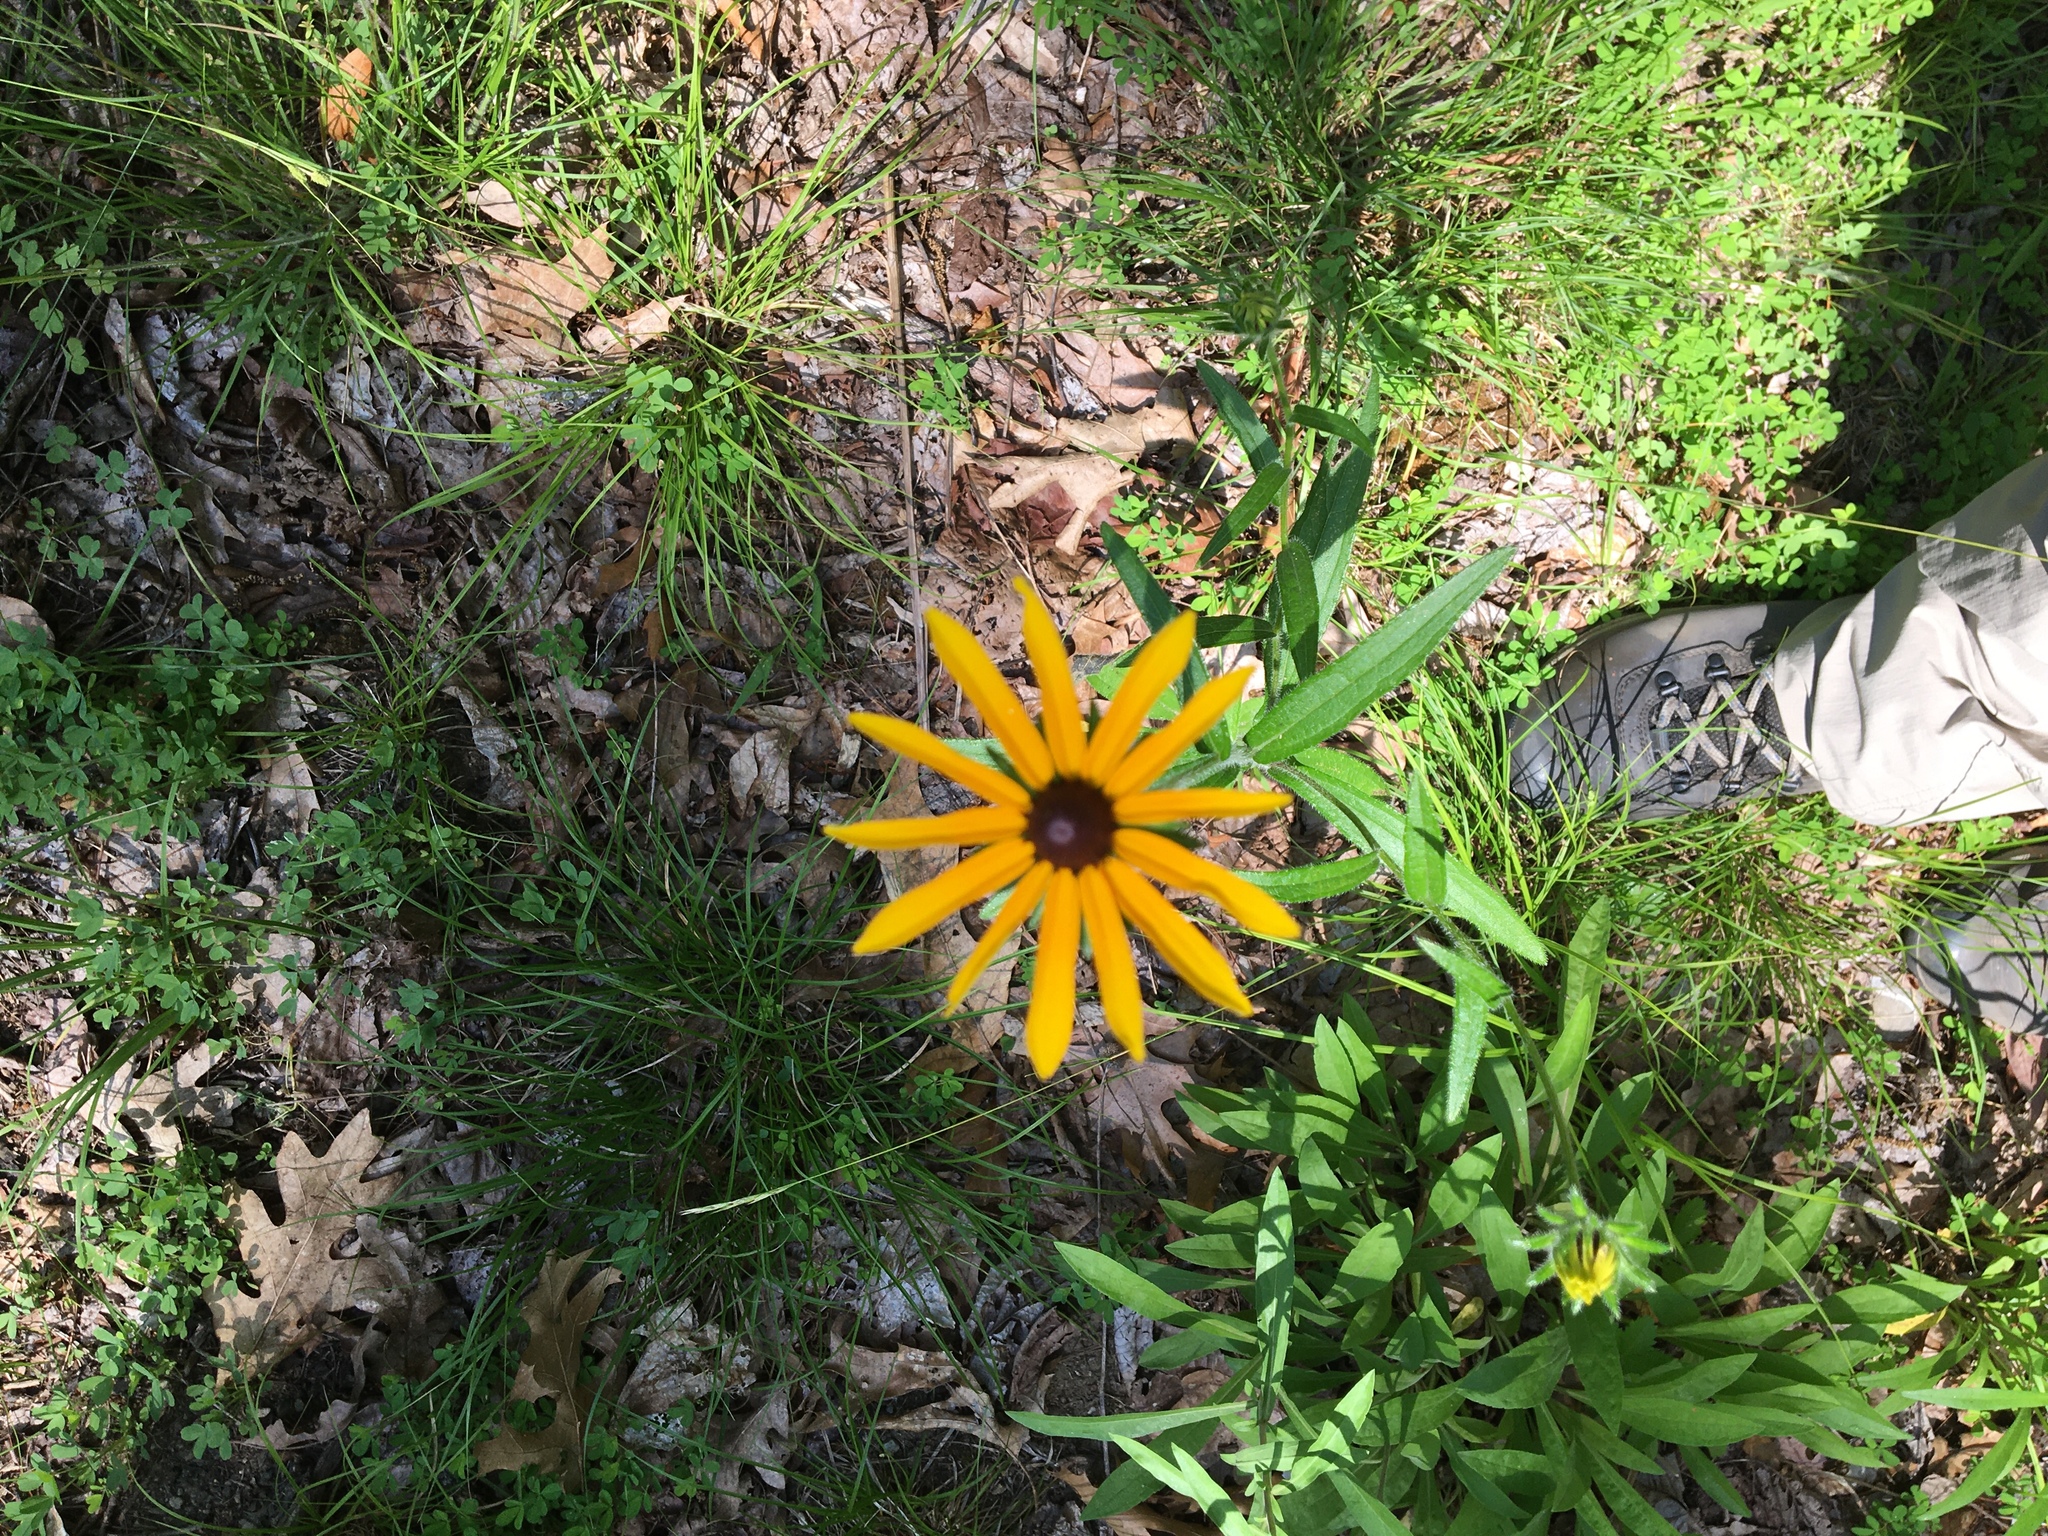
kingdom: Plantae
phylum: Tracheophyta
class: Magnoliopsida
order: Asterales
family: Asteraceae
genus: Rudbeckia
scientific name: Rudbeckia hirta
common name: Black-eyed-susan
